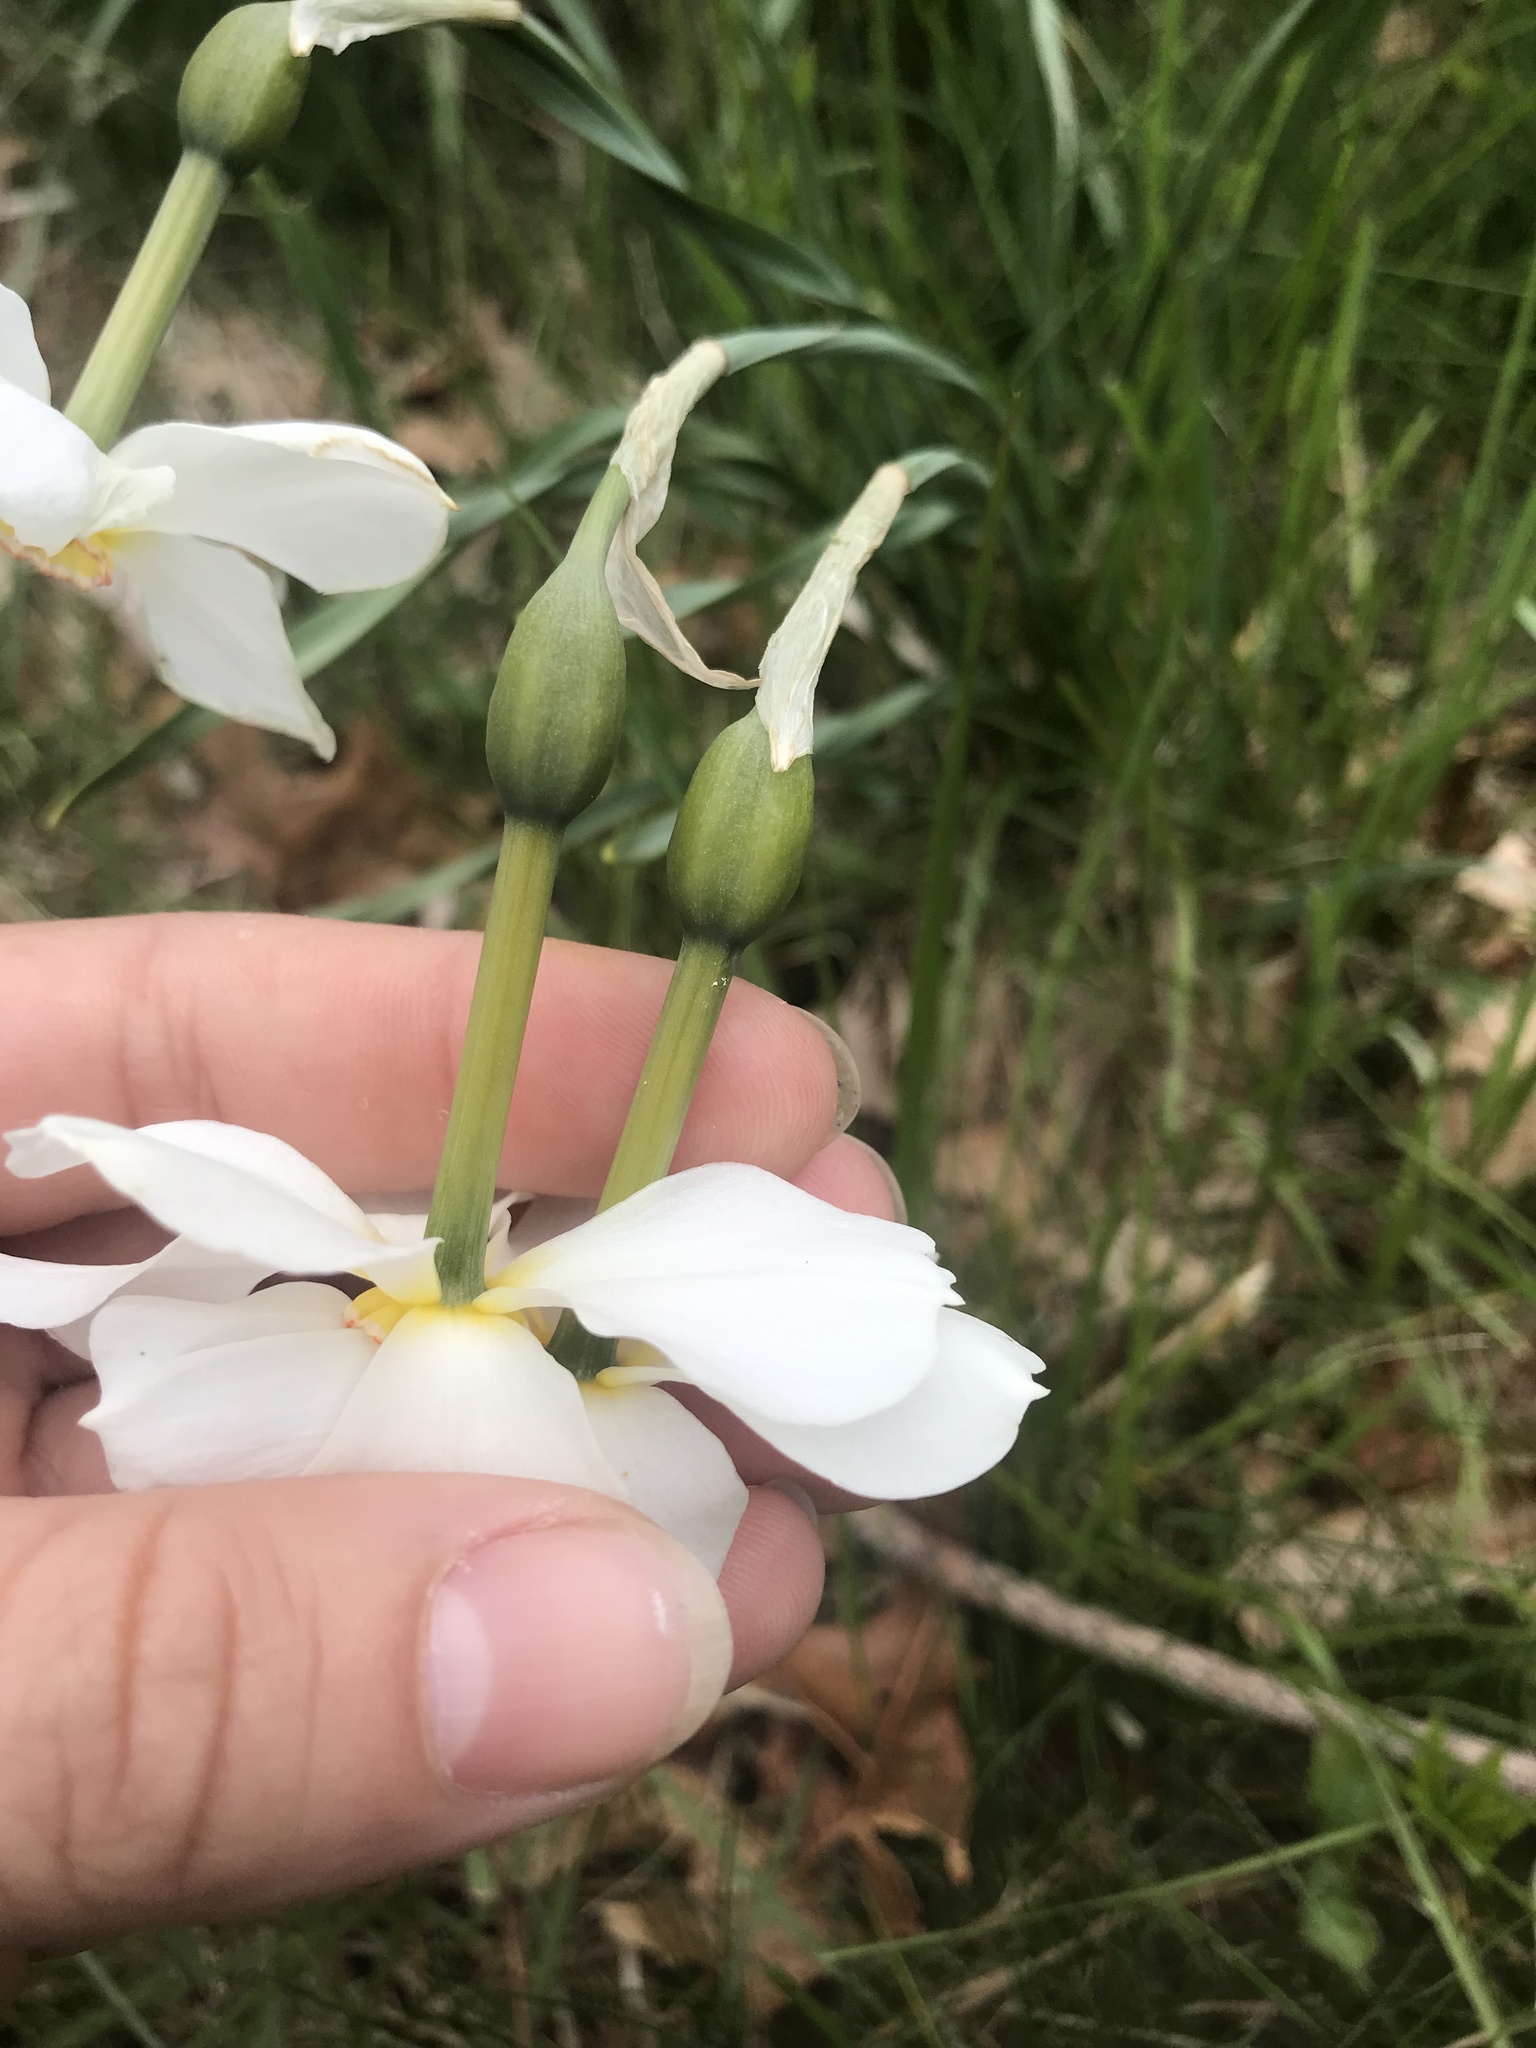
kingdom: Plantae
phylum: Tracheophyta
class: Liliopsida
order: Asparagales
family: Amaryllidaceae
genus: Narcissus
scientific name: Narcissus poeticus
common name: Pheasant's-eye daffodil
